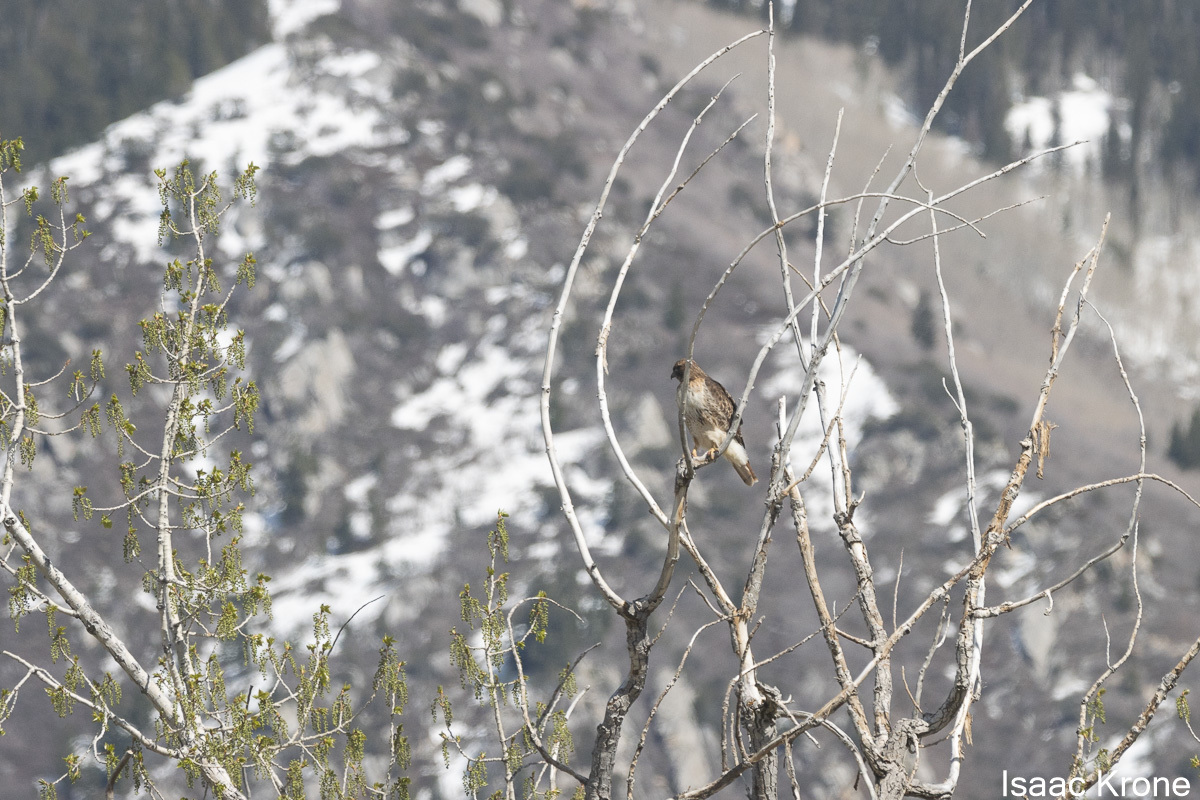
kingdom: Animalia
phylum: Chordata
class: Aves
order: Accipitriformes
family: Accipitridae
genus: Buteo
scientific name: Buteo jamaicensis
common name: Red-tailed hawk
